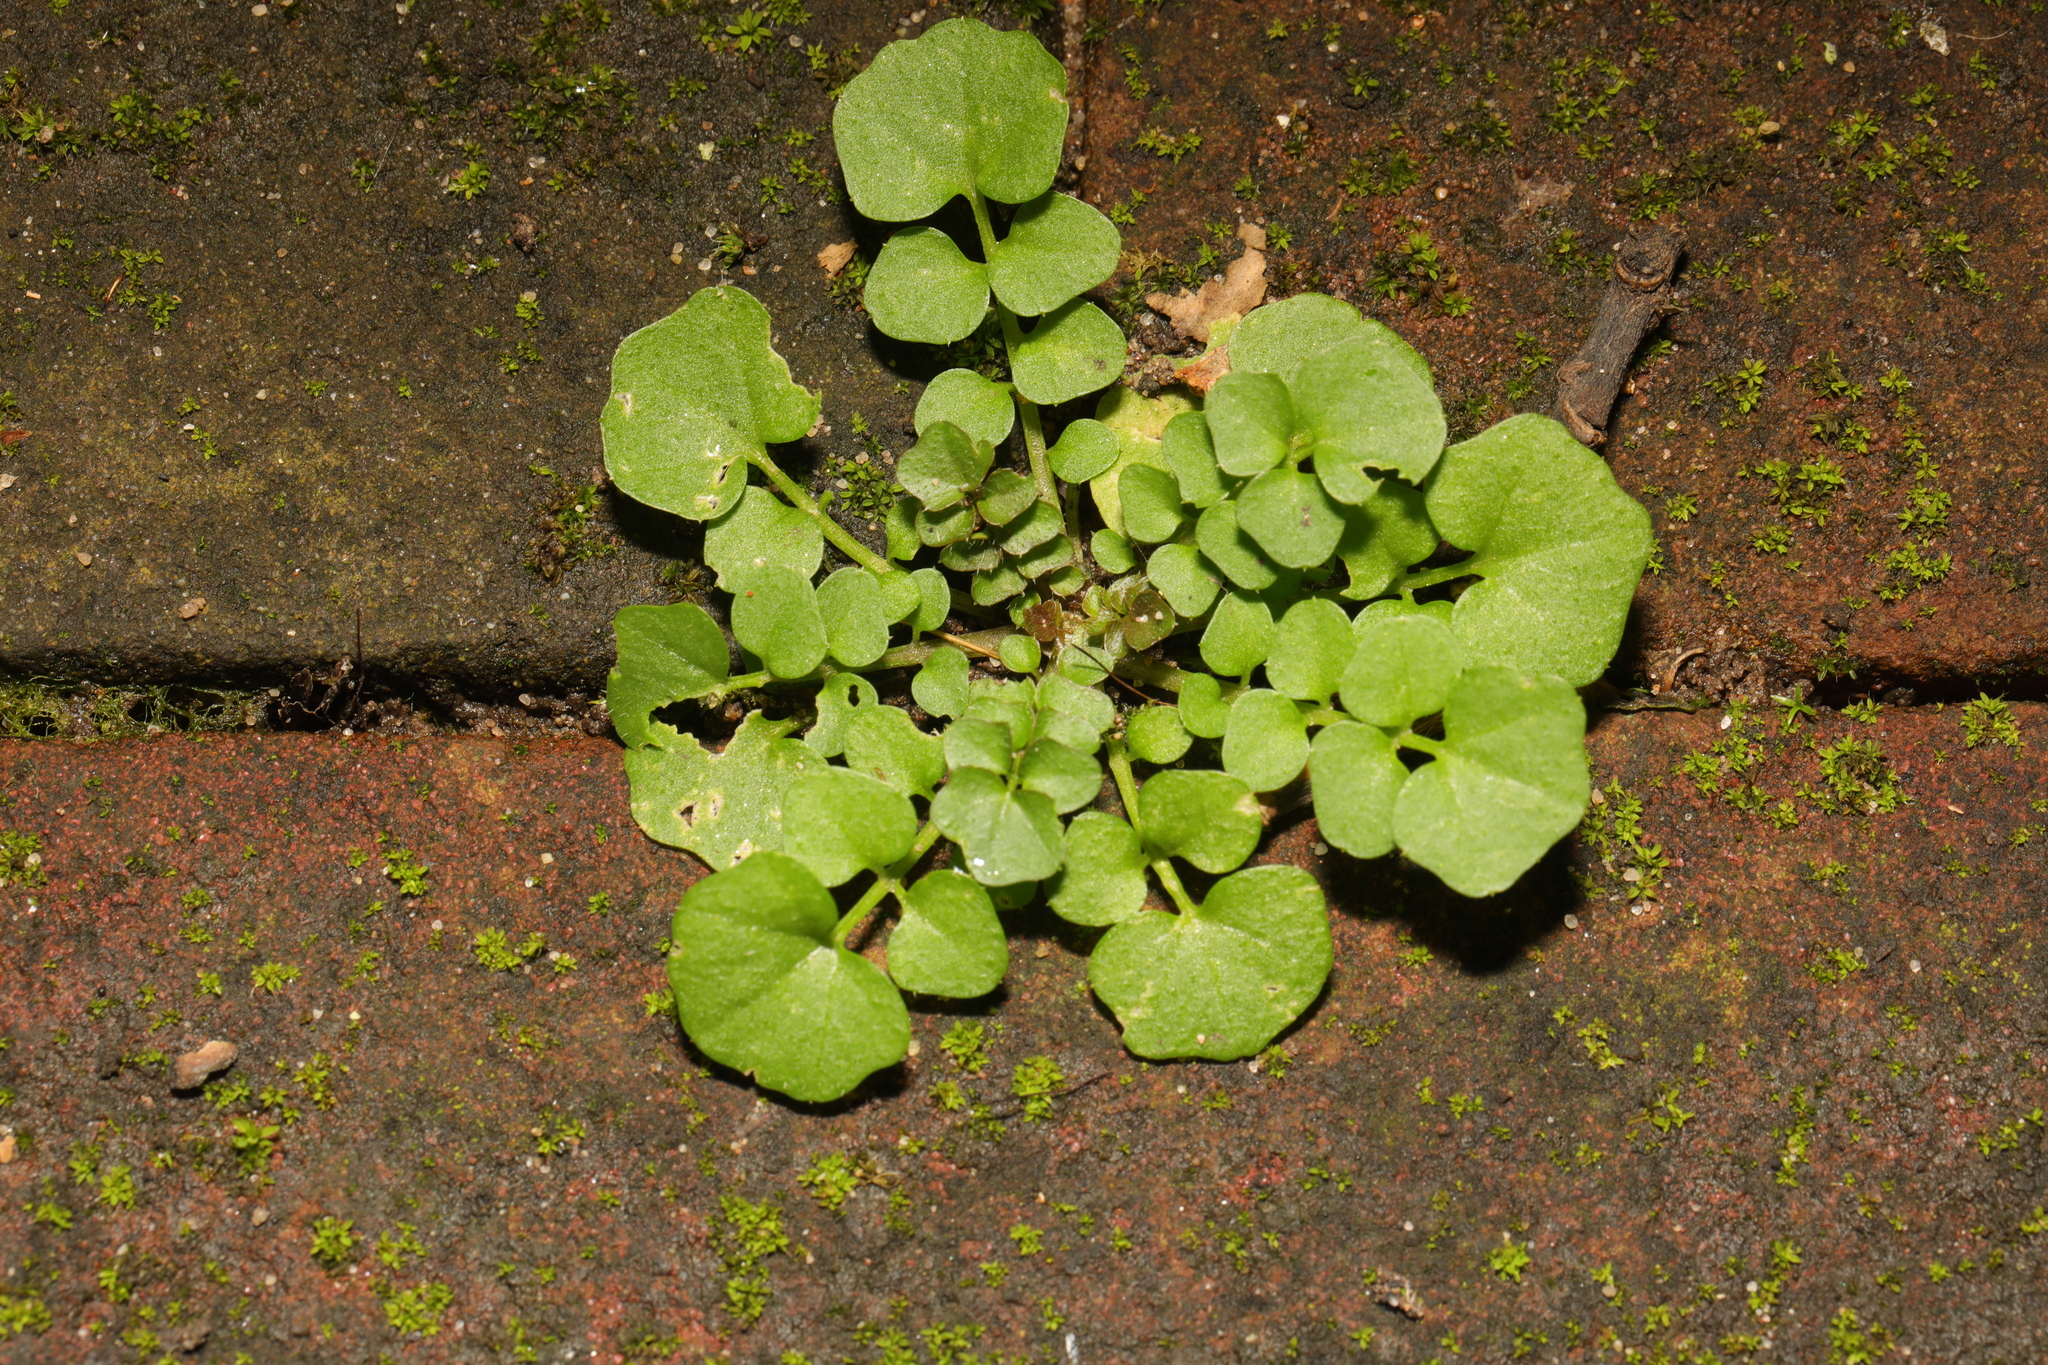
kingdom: Plantae
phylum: Tracheophyta
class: Magnoliopsida
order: Brassicales
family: Brassicaceae
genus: Cardamine
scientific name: Cardamine hirsuta
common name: Hairy bittercress
